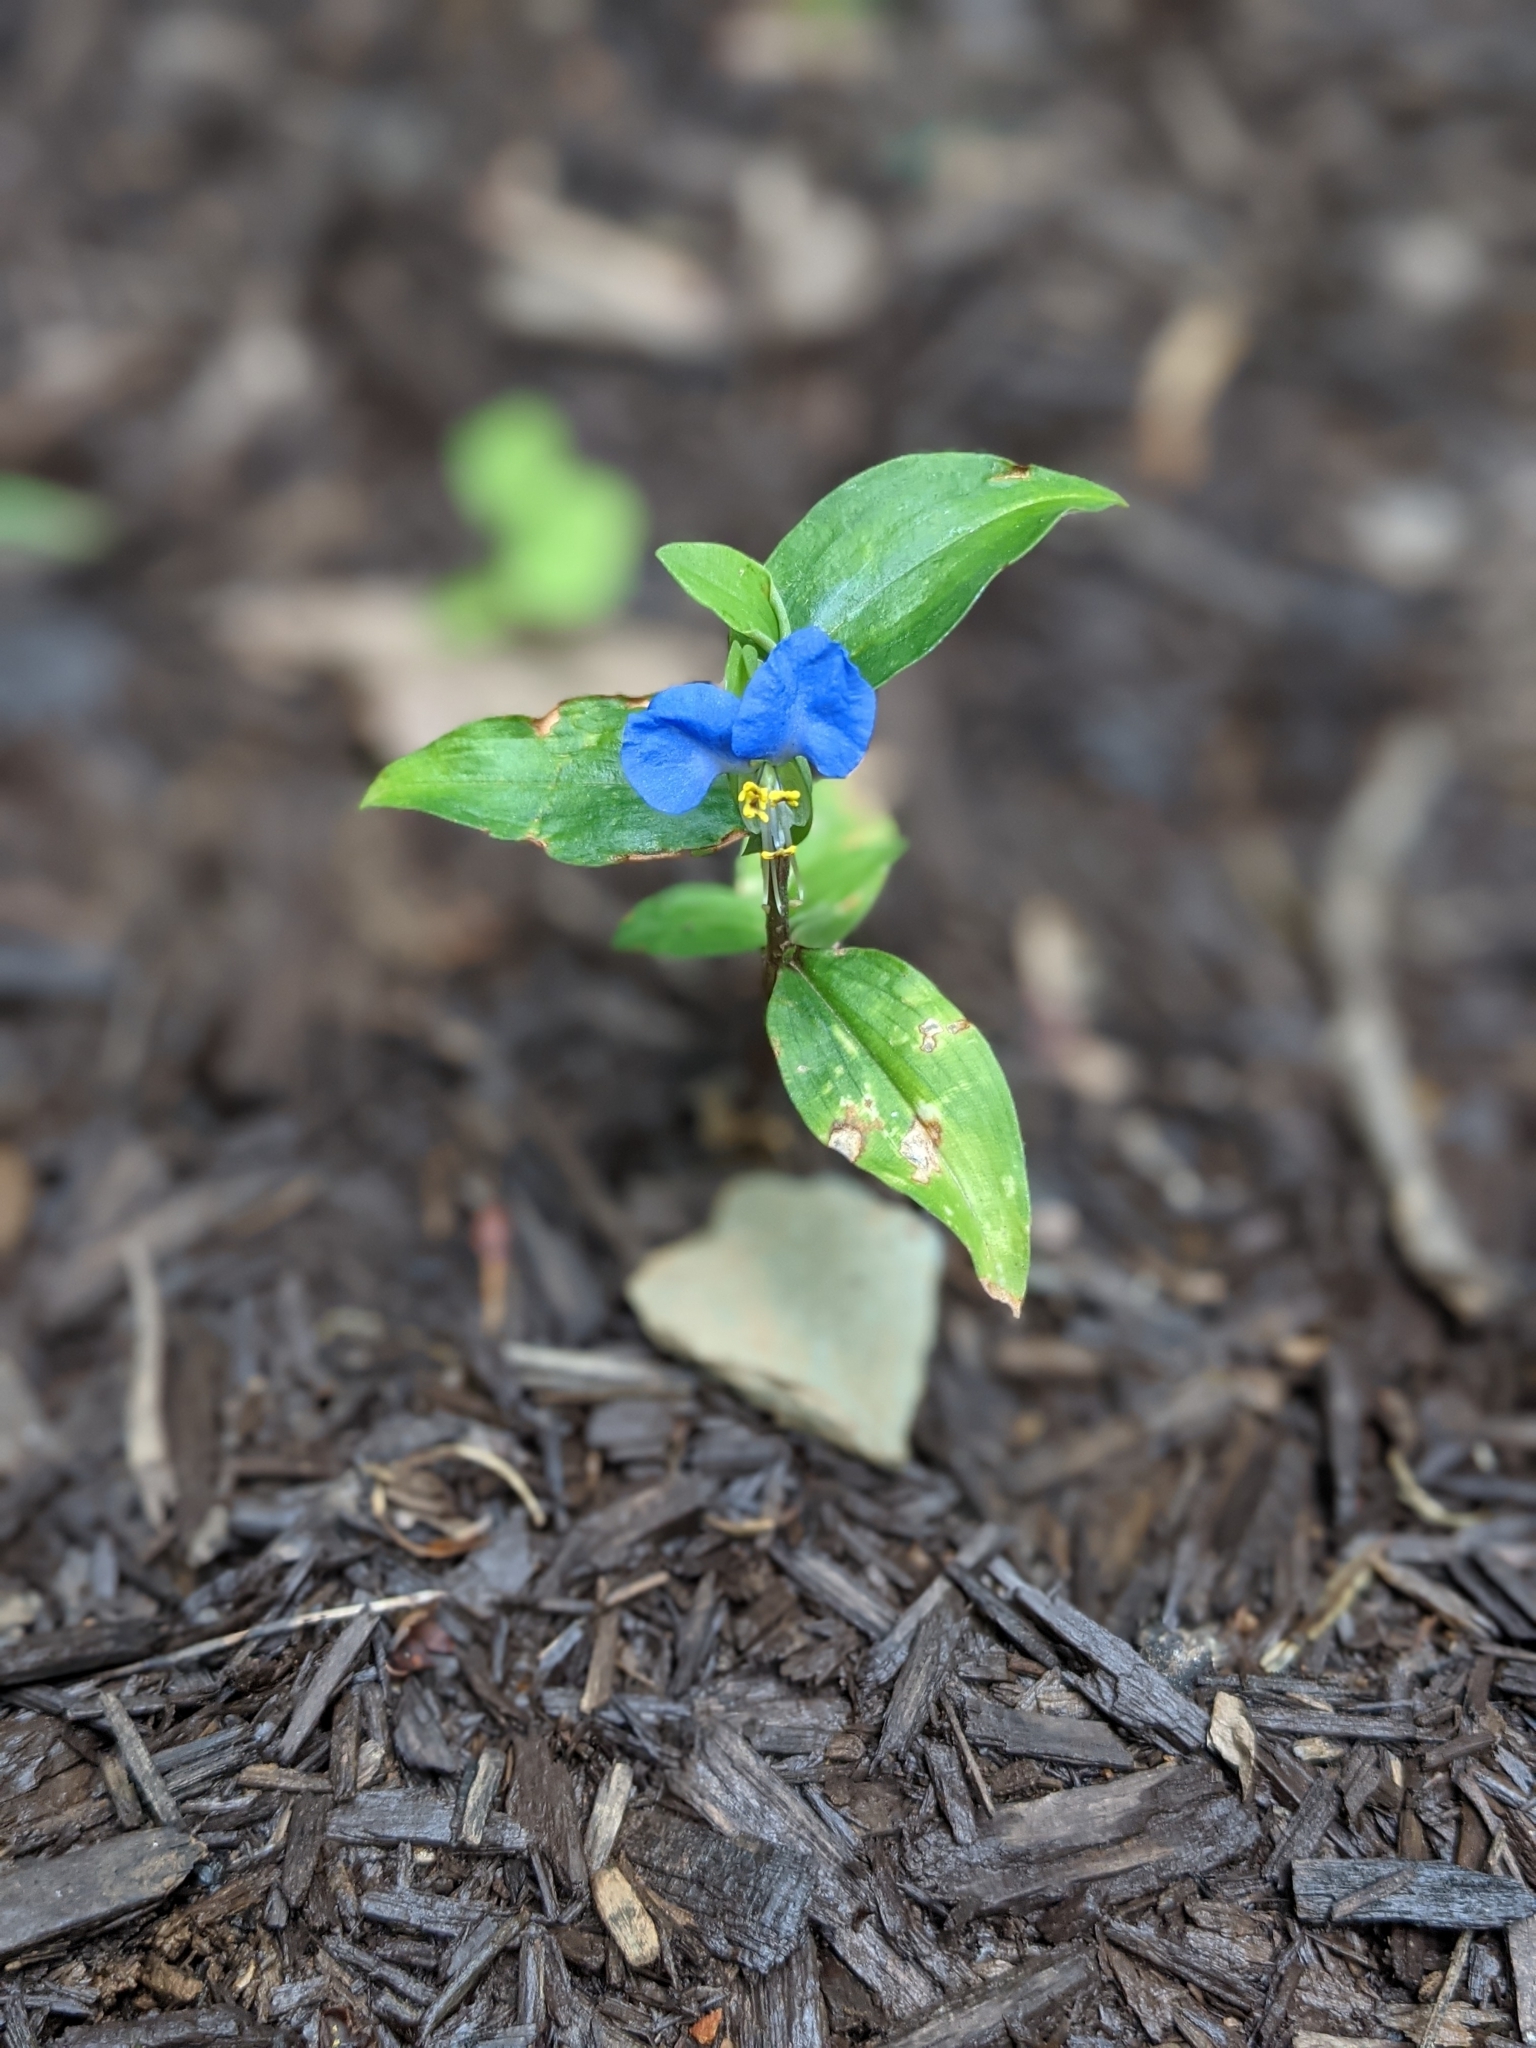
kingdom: Plantae
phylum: Tracheophyta
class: Liliopsida
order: Commelinales
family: Commelinaceae
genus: Commelina
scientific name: Commelina communis
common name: Asiatic dayflower
